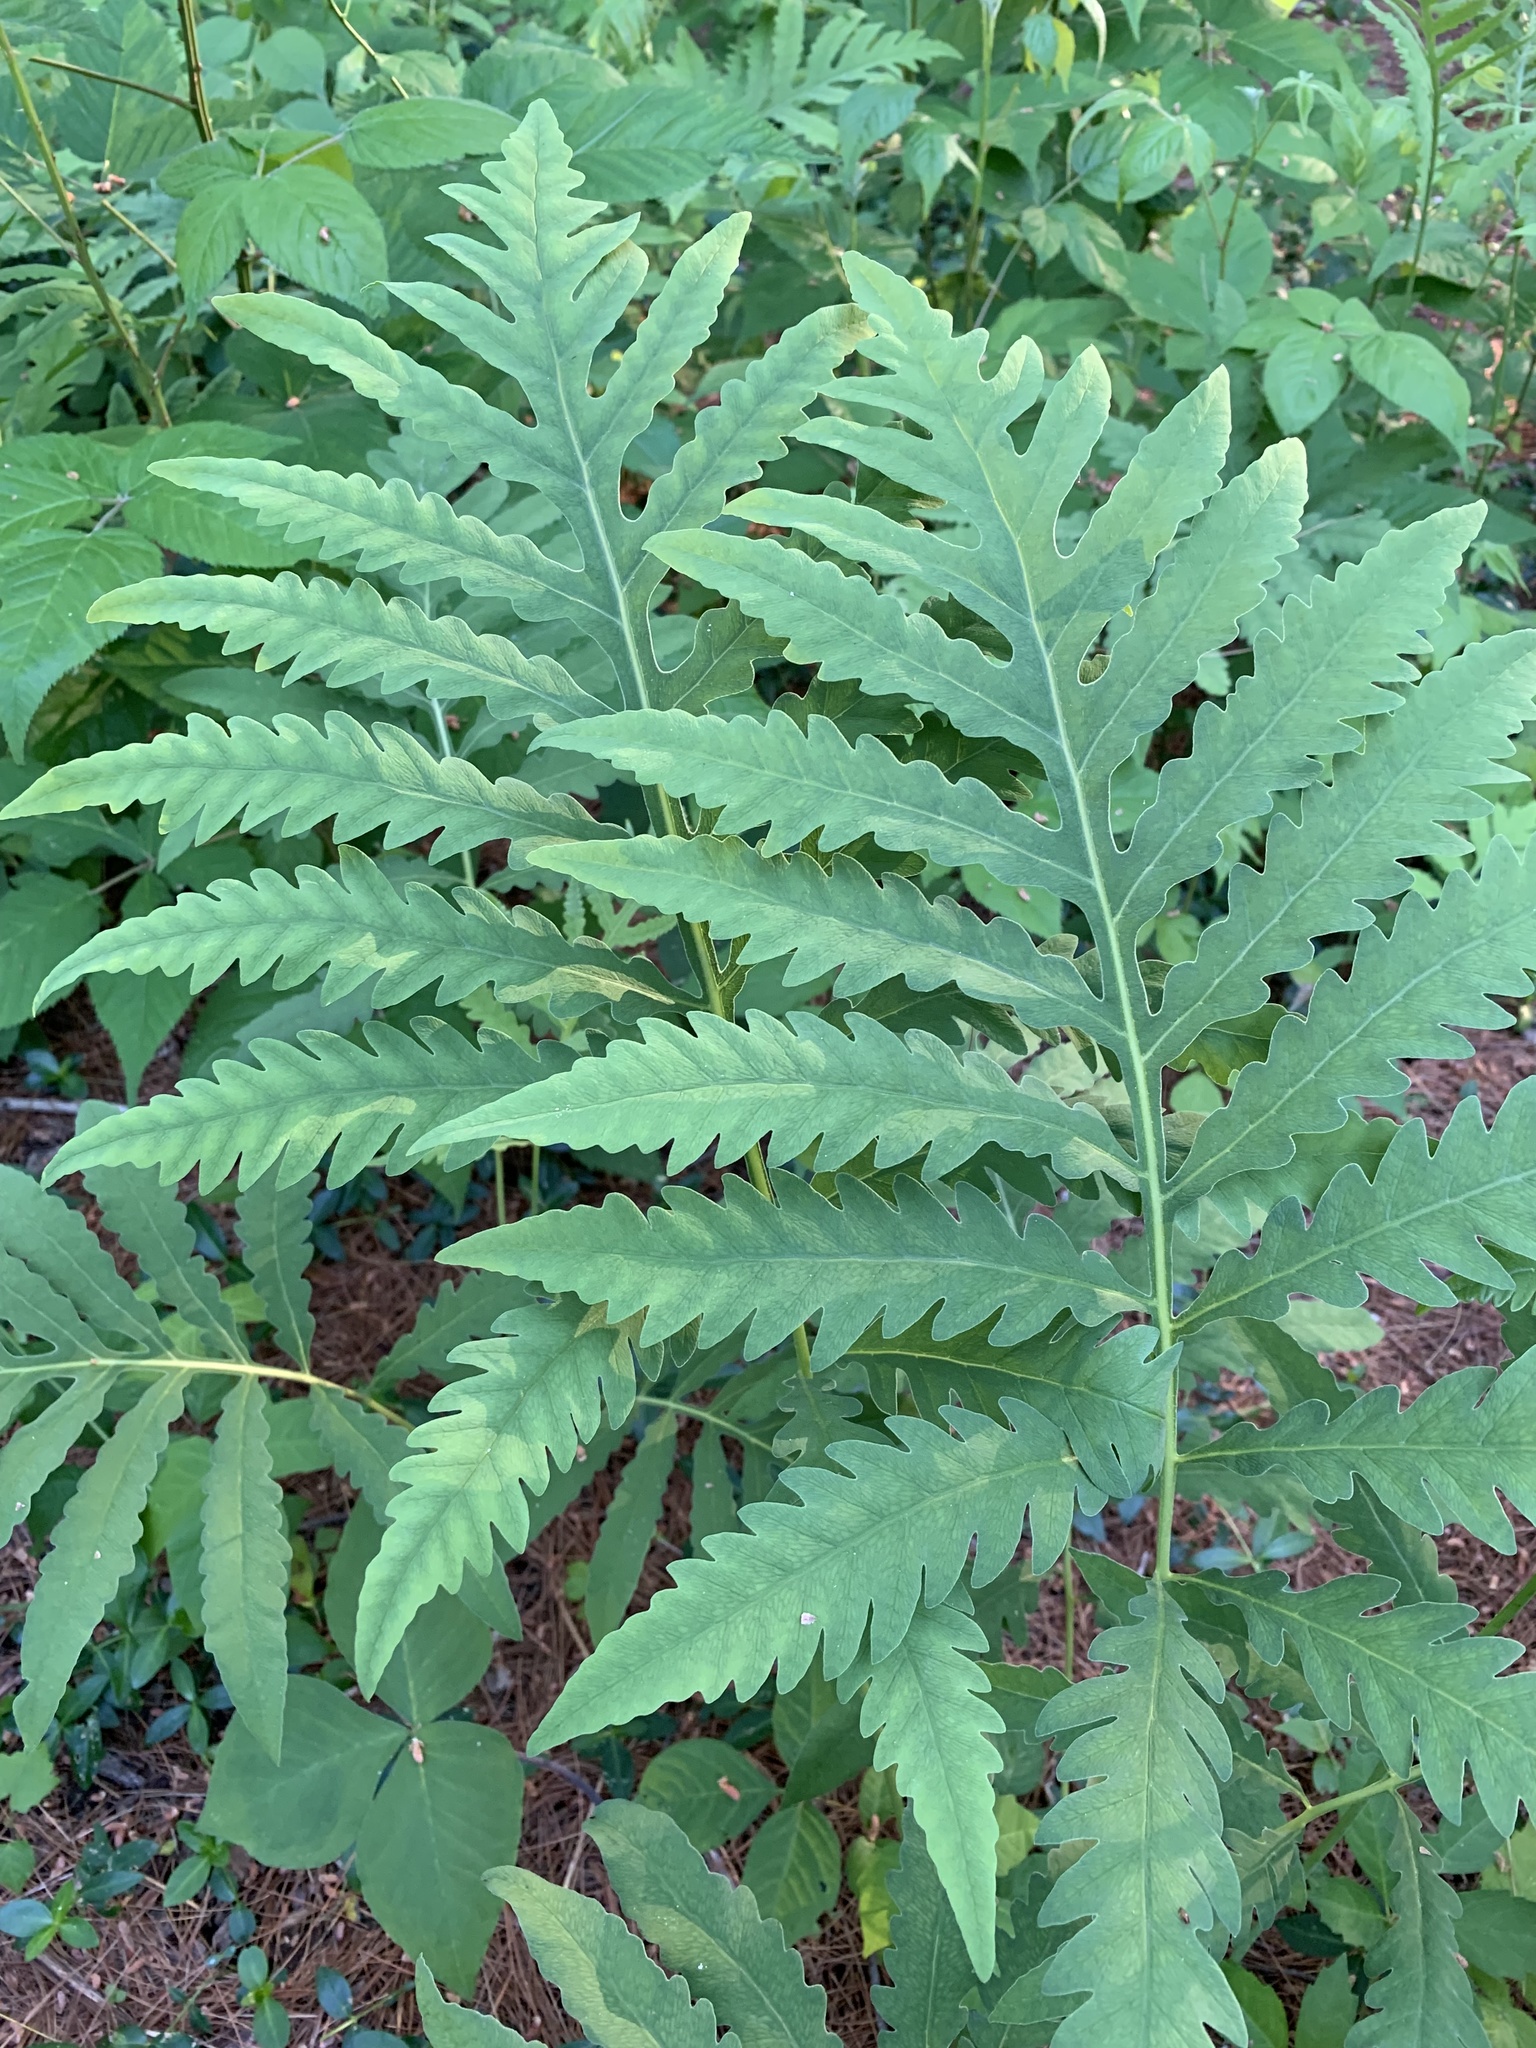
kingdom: Plantae
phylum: Tracheophyta
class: Polypodiopsida
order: Polypodiales
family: Onocleaceae
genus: Onoclea
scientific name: Onoclea sensibilis
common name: Sensitive fern
